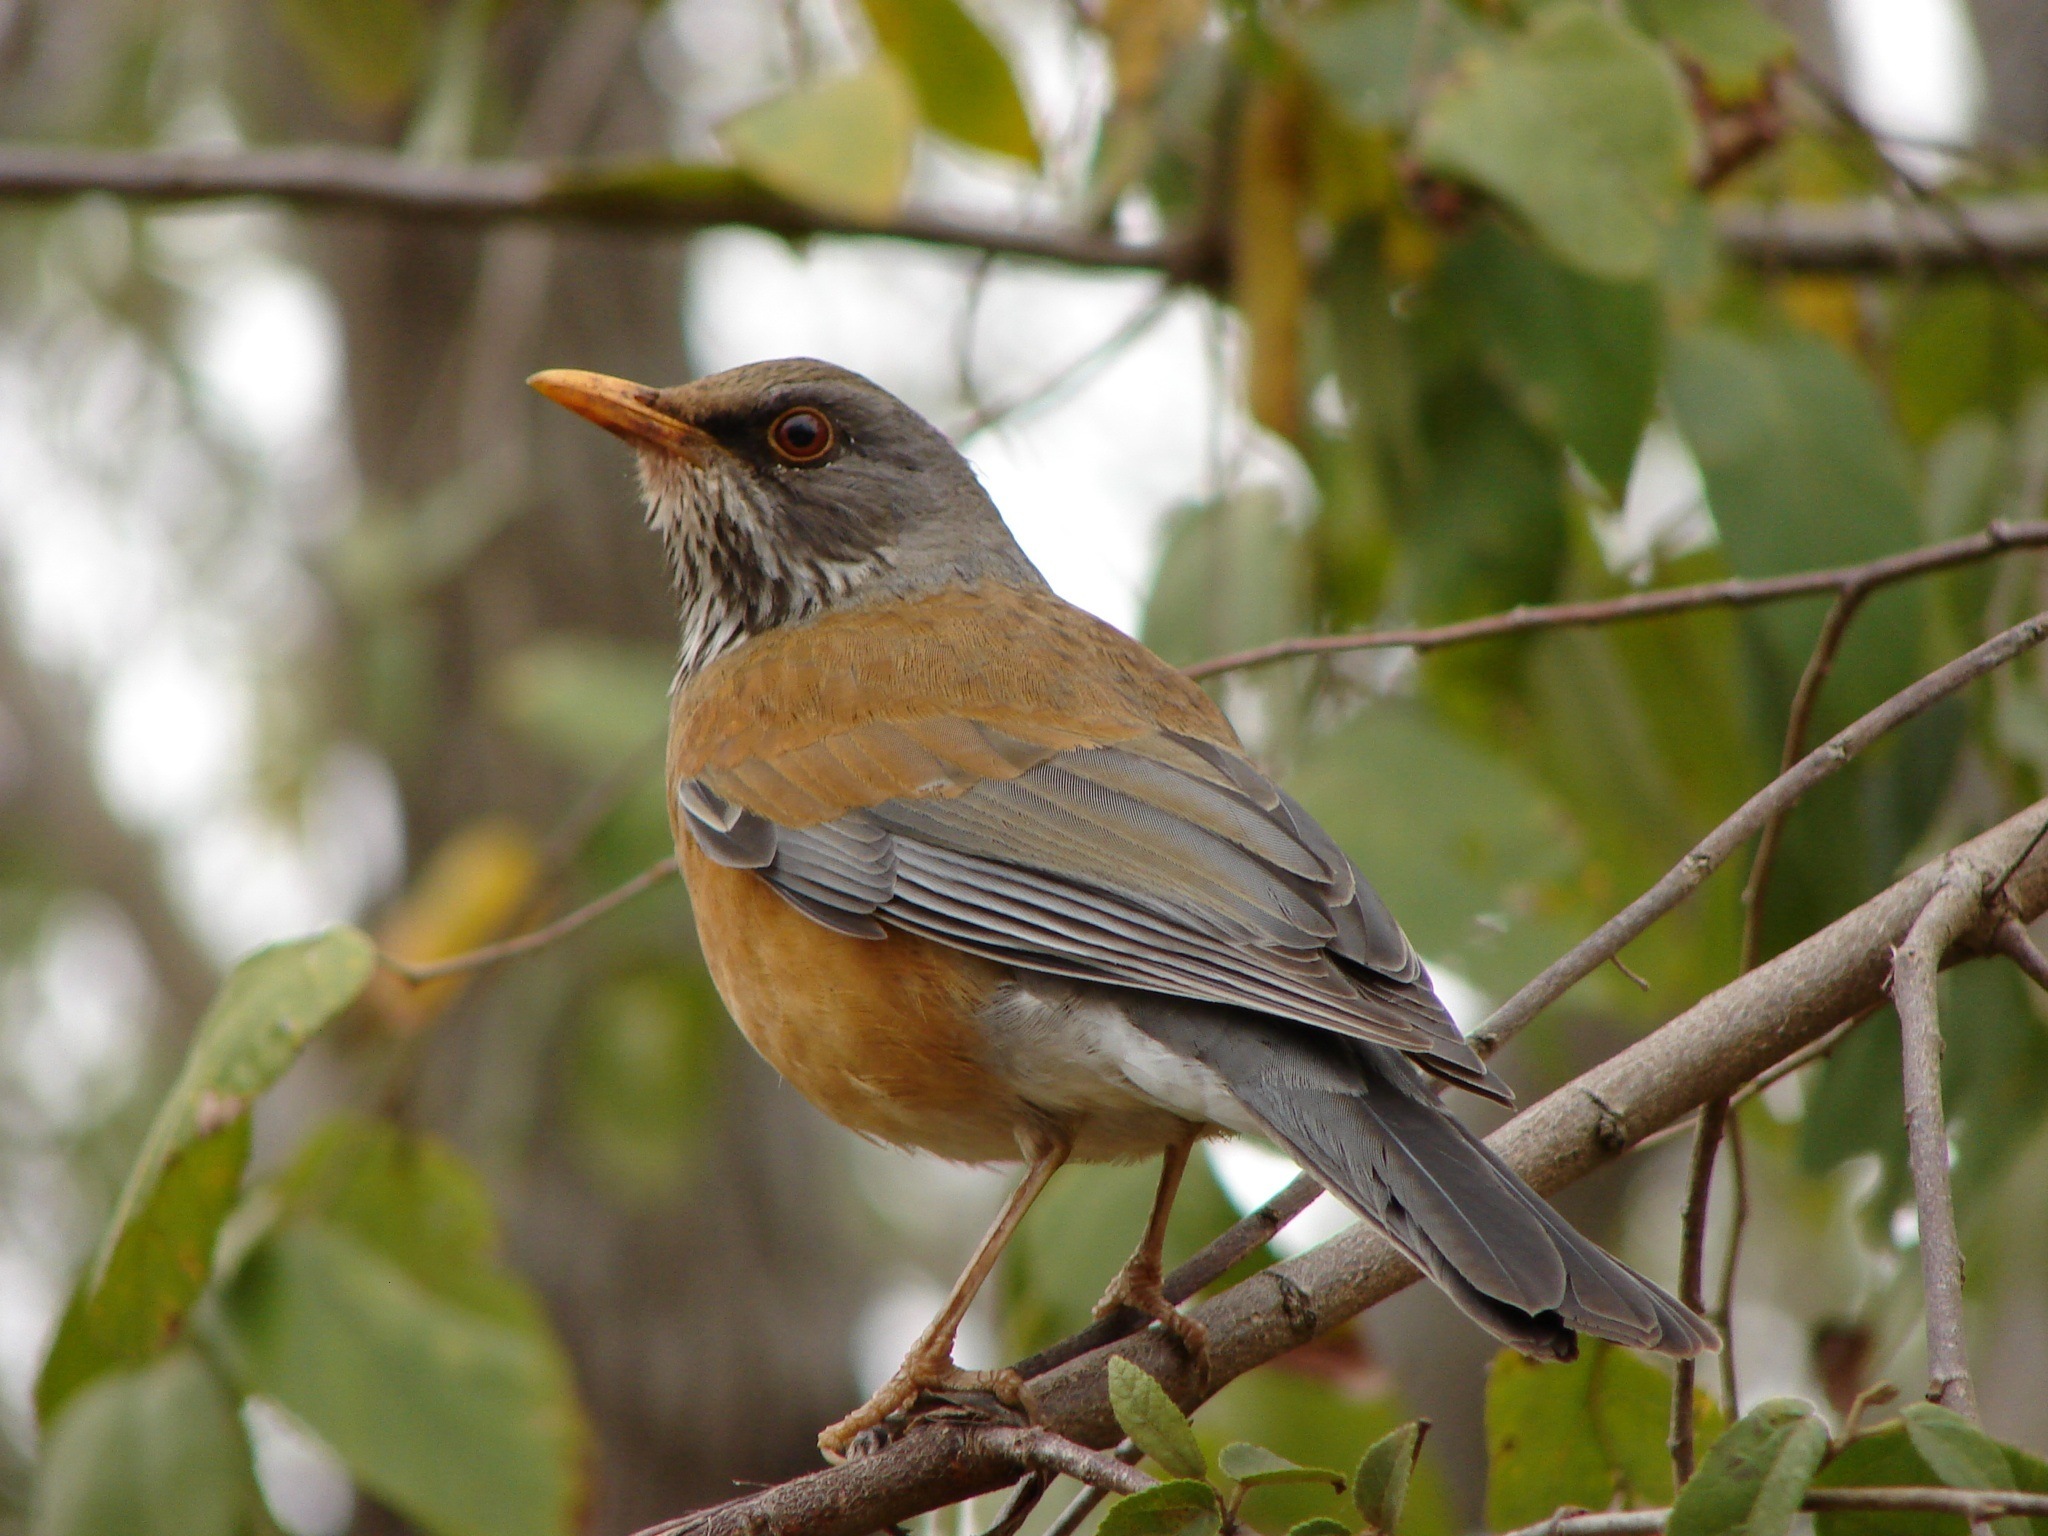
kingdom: Animalia
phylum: Chordata
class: Aves
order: Passeriformes
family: Turdidae
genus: Turdus
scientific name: Turdus rufopalliatus
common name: Rufous-backed robin
